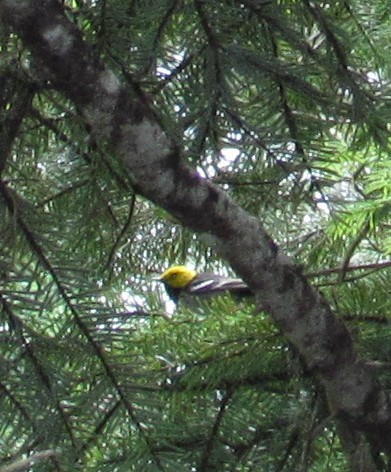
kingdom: Animalia
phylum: Chordata
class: Aves
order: Passeriformes
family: Parulidae
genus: Setophaga
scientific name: Setophaga occidentalis
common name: Hermit warbler
